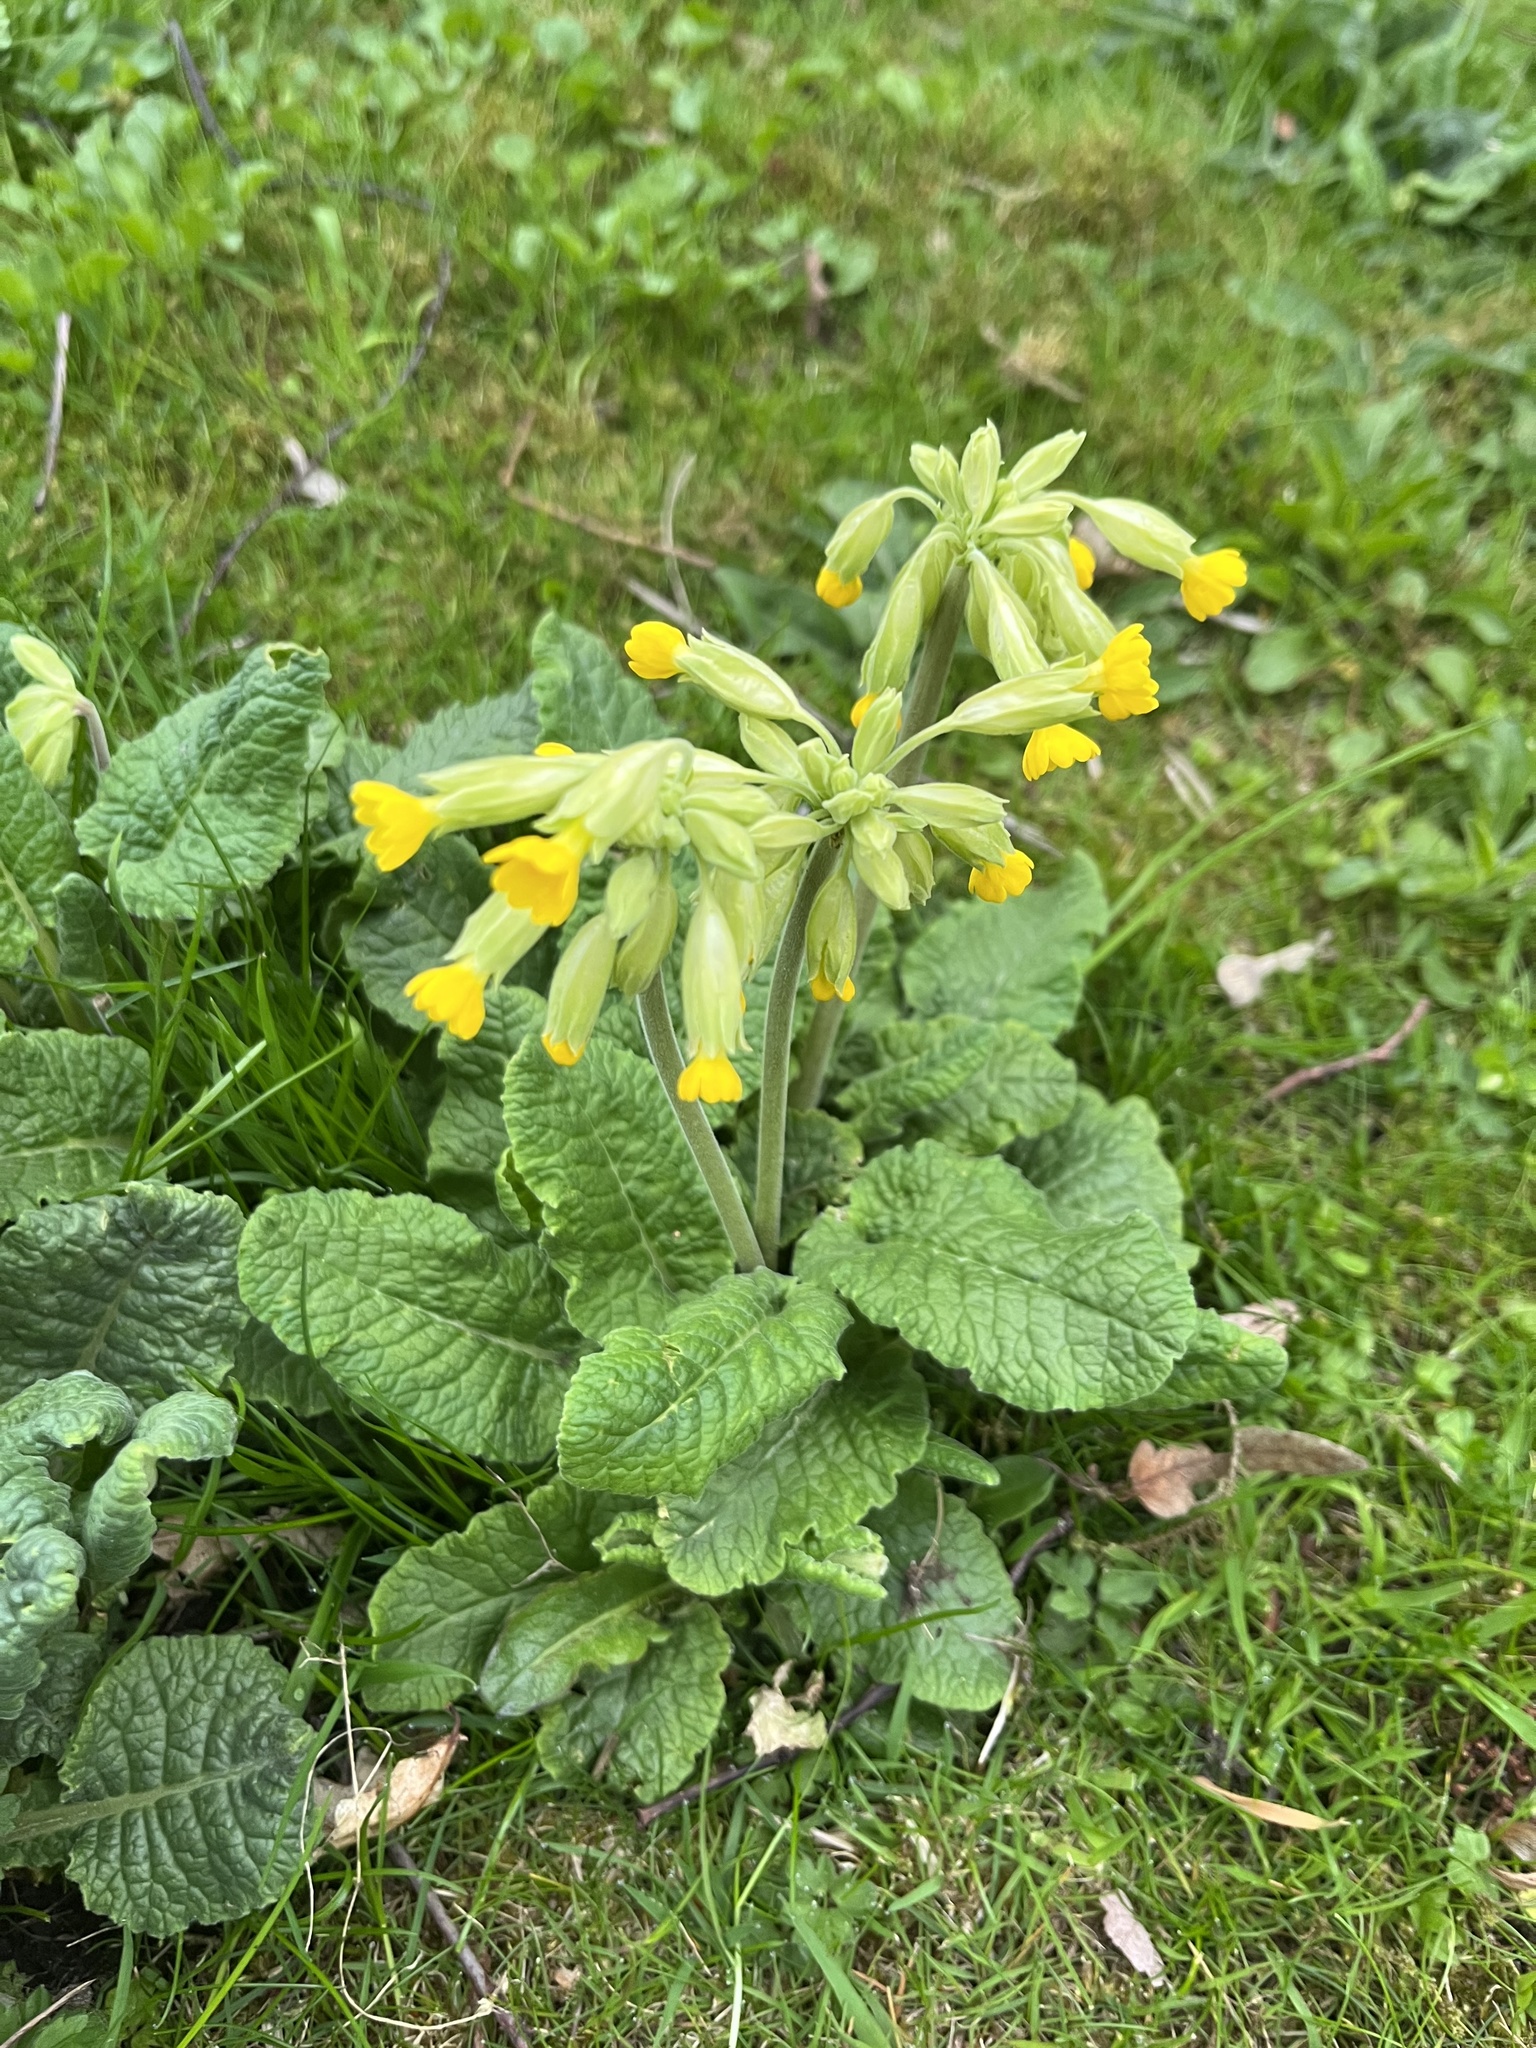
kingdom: Plantae
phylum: Tracheophyta
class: Magnoliopsida
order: Ericales
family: Primulaceae
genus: Primula
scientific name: Primula veris
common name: Cowslip
